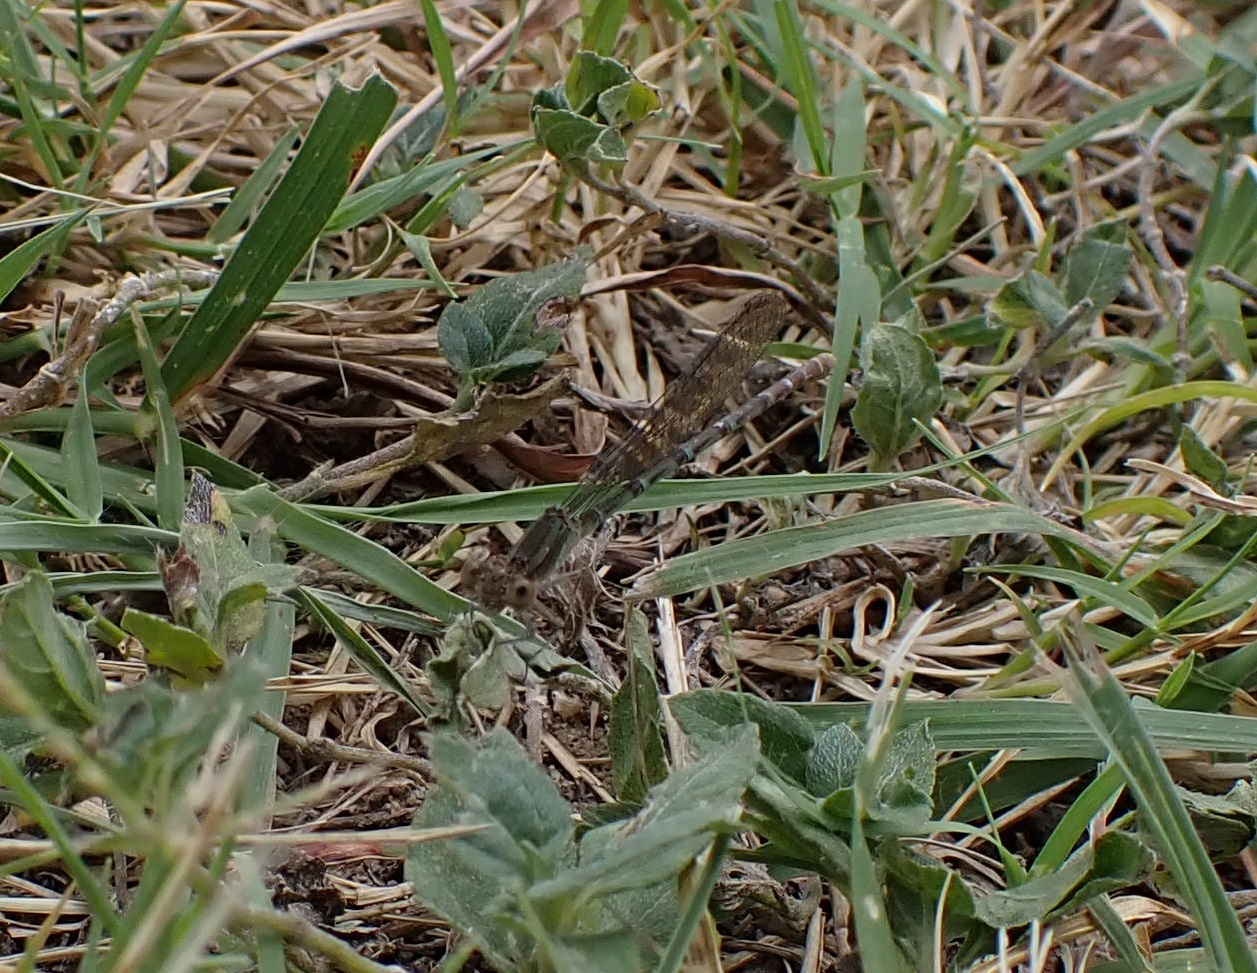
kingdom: Animalia
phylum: Arthropoda
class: Insecta
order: Odonata
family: Coenagrionidae
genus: Argia
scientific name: Argia sedula
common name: Blue-ringed dancer
